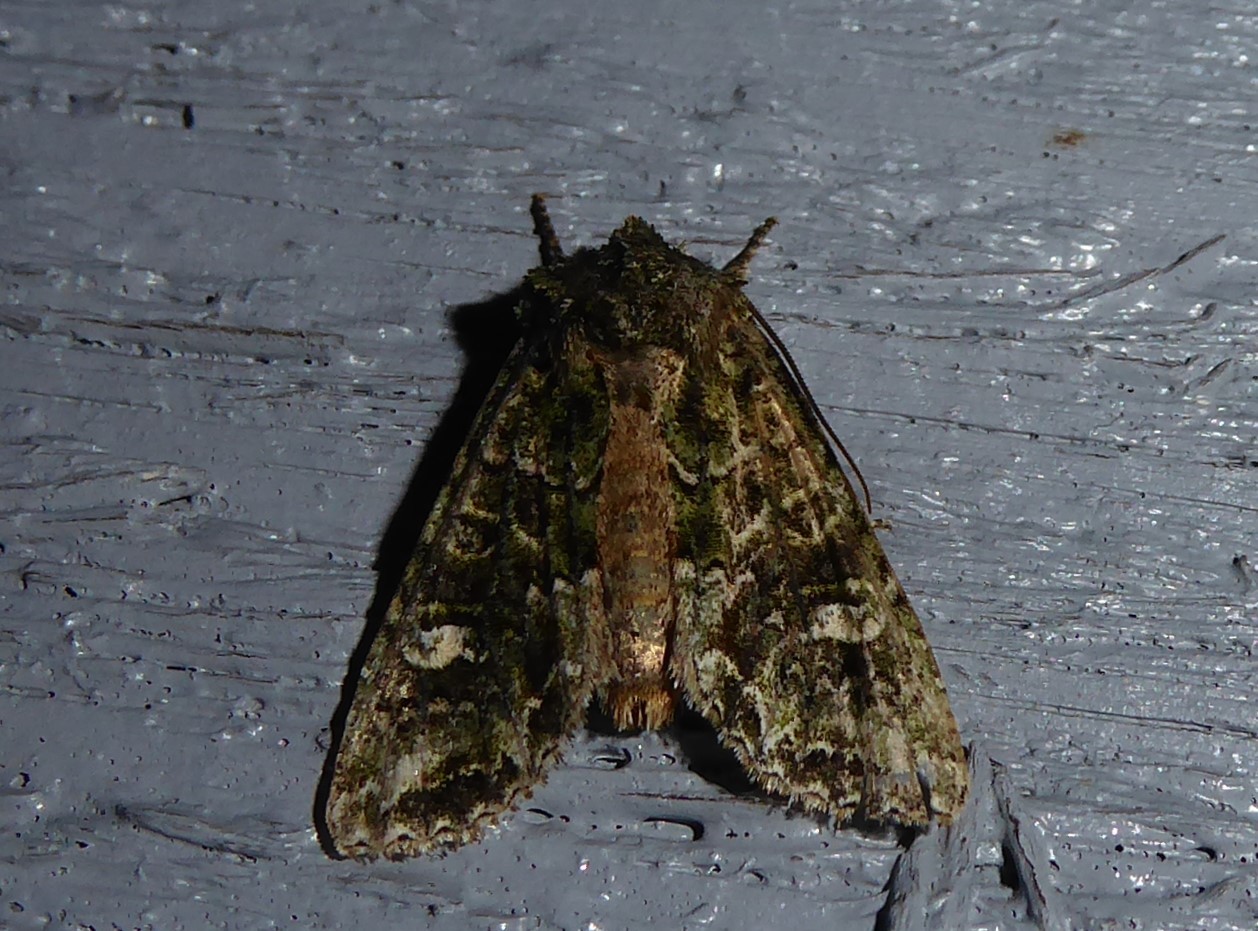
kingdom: Animalia
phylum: Arthropoda
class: Insecta
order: Lepidoptera
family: Noctuidae
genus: Ichneutica
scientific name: Ichneutica
